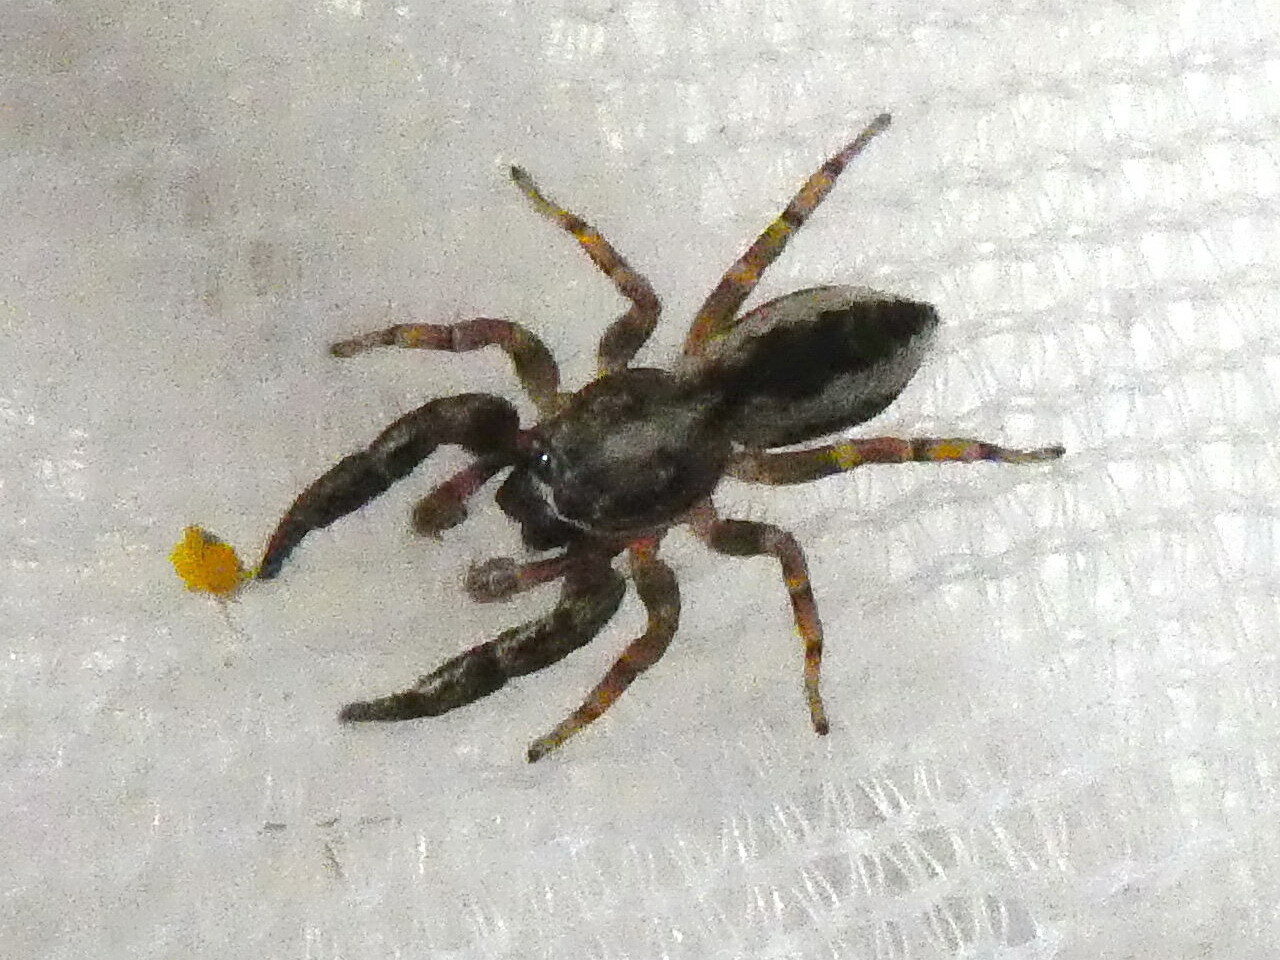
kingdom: Animalia
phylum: Arthropoda
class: Arachnida
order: Araneae
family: Salticidae
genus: Pseudicius
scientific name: Pseudicius encarpatus
